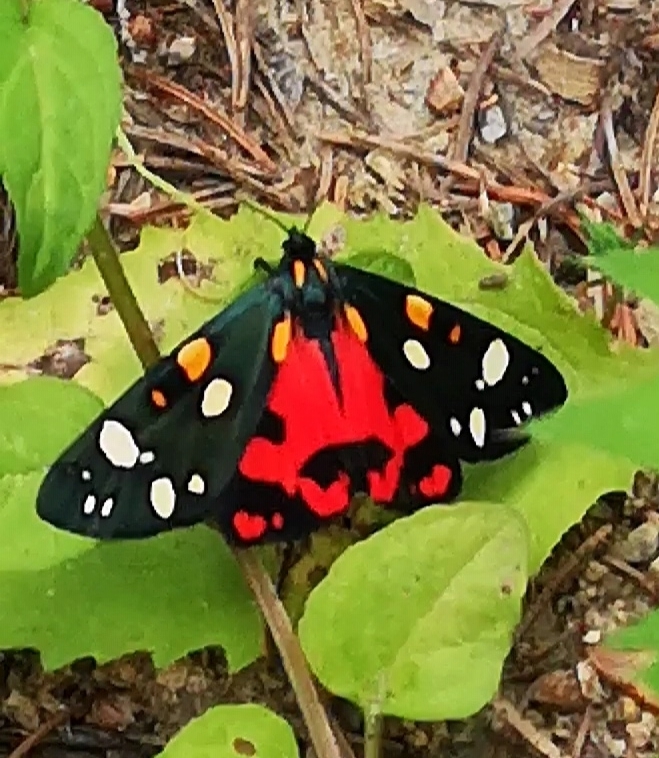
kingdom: Animalia
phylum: Arthropoda
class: Insecta
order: Lepidoptera
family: Erebidae
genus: Callimorpha
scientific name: Callimorpha dominula
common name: Scarlet tiger
